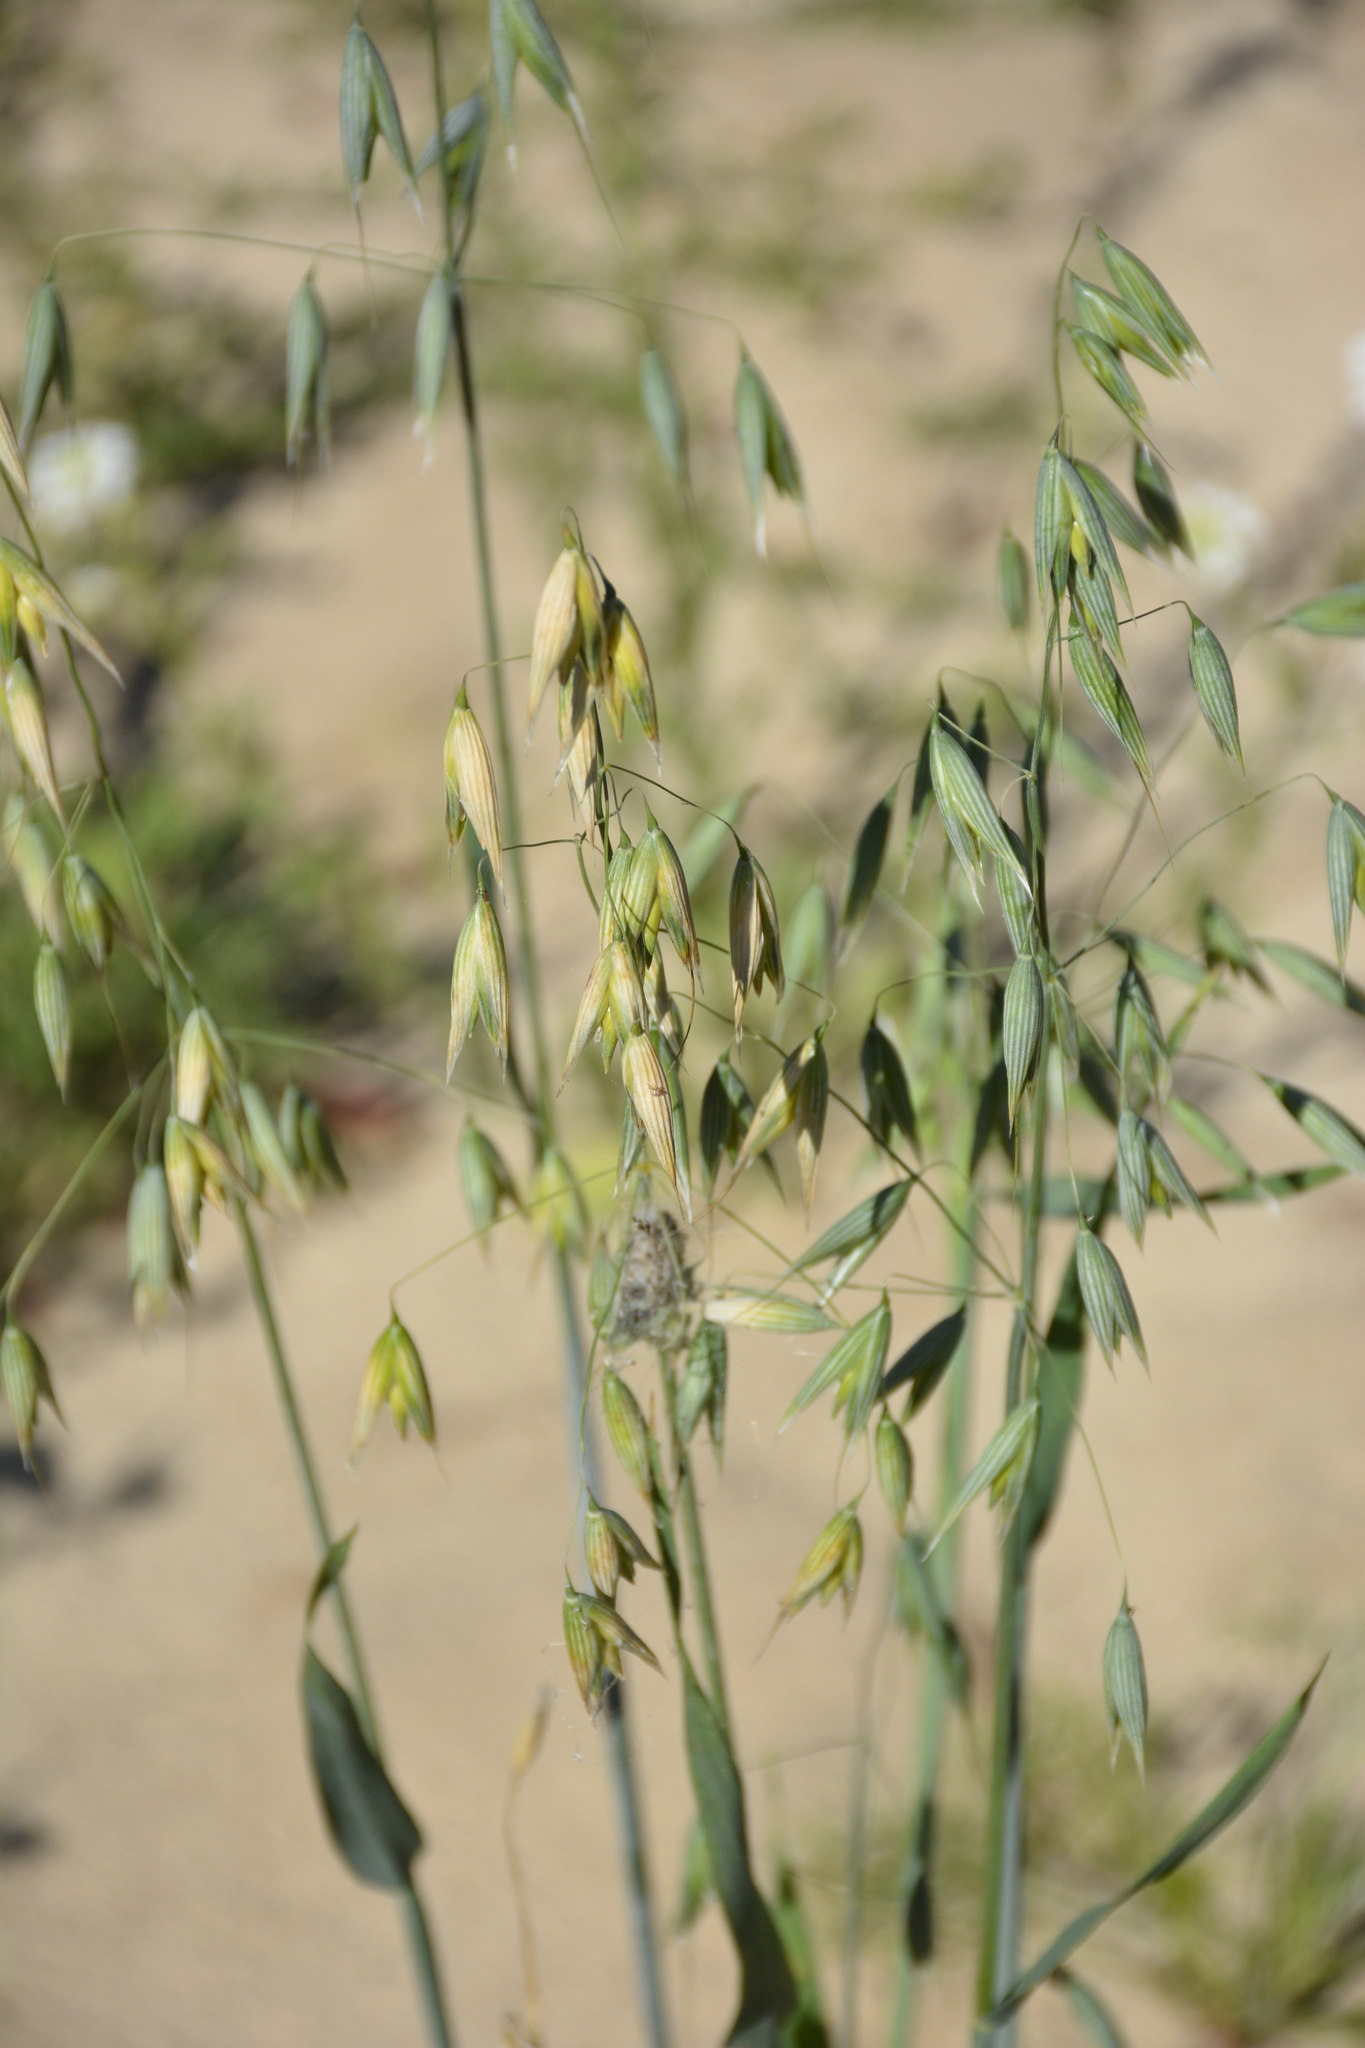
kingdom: Plantae
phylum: Tracheophyta
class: Liliopsida
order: Poales
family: Poaceae
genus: Avena
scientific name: Avena sativa
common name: Oat
